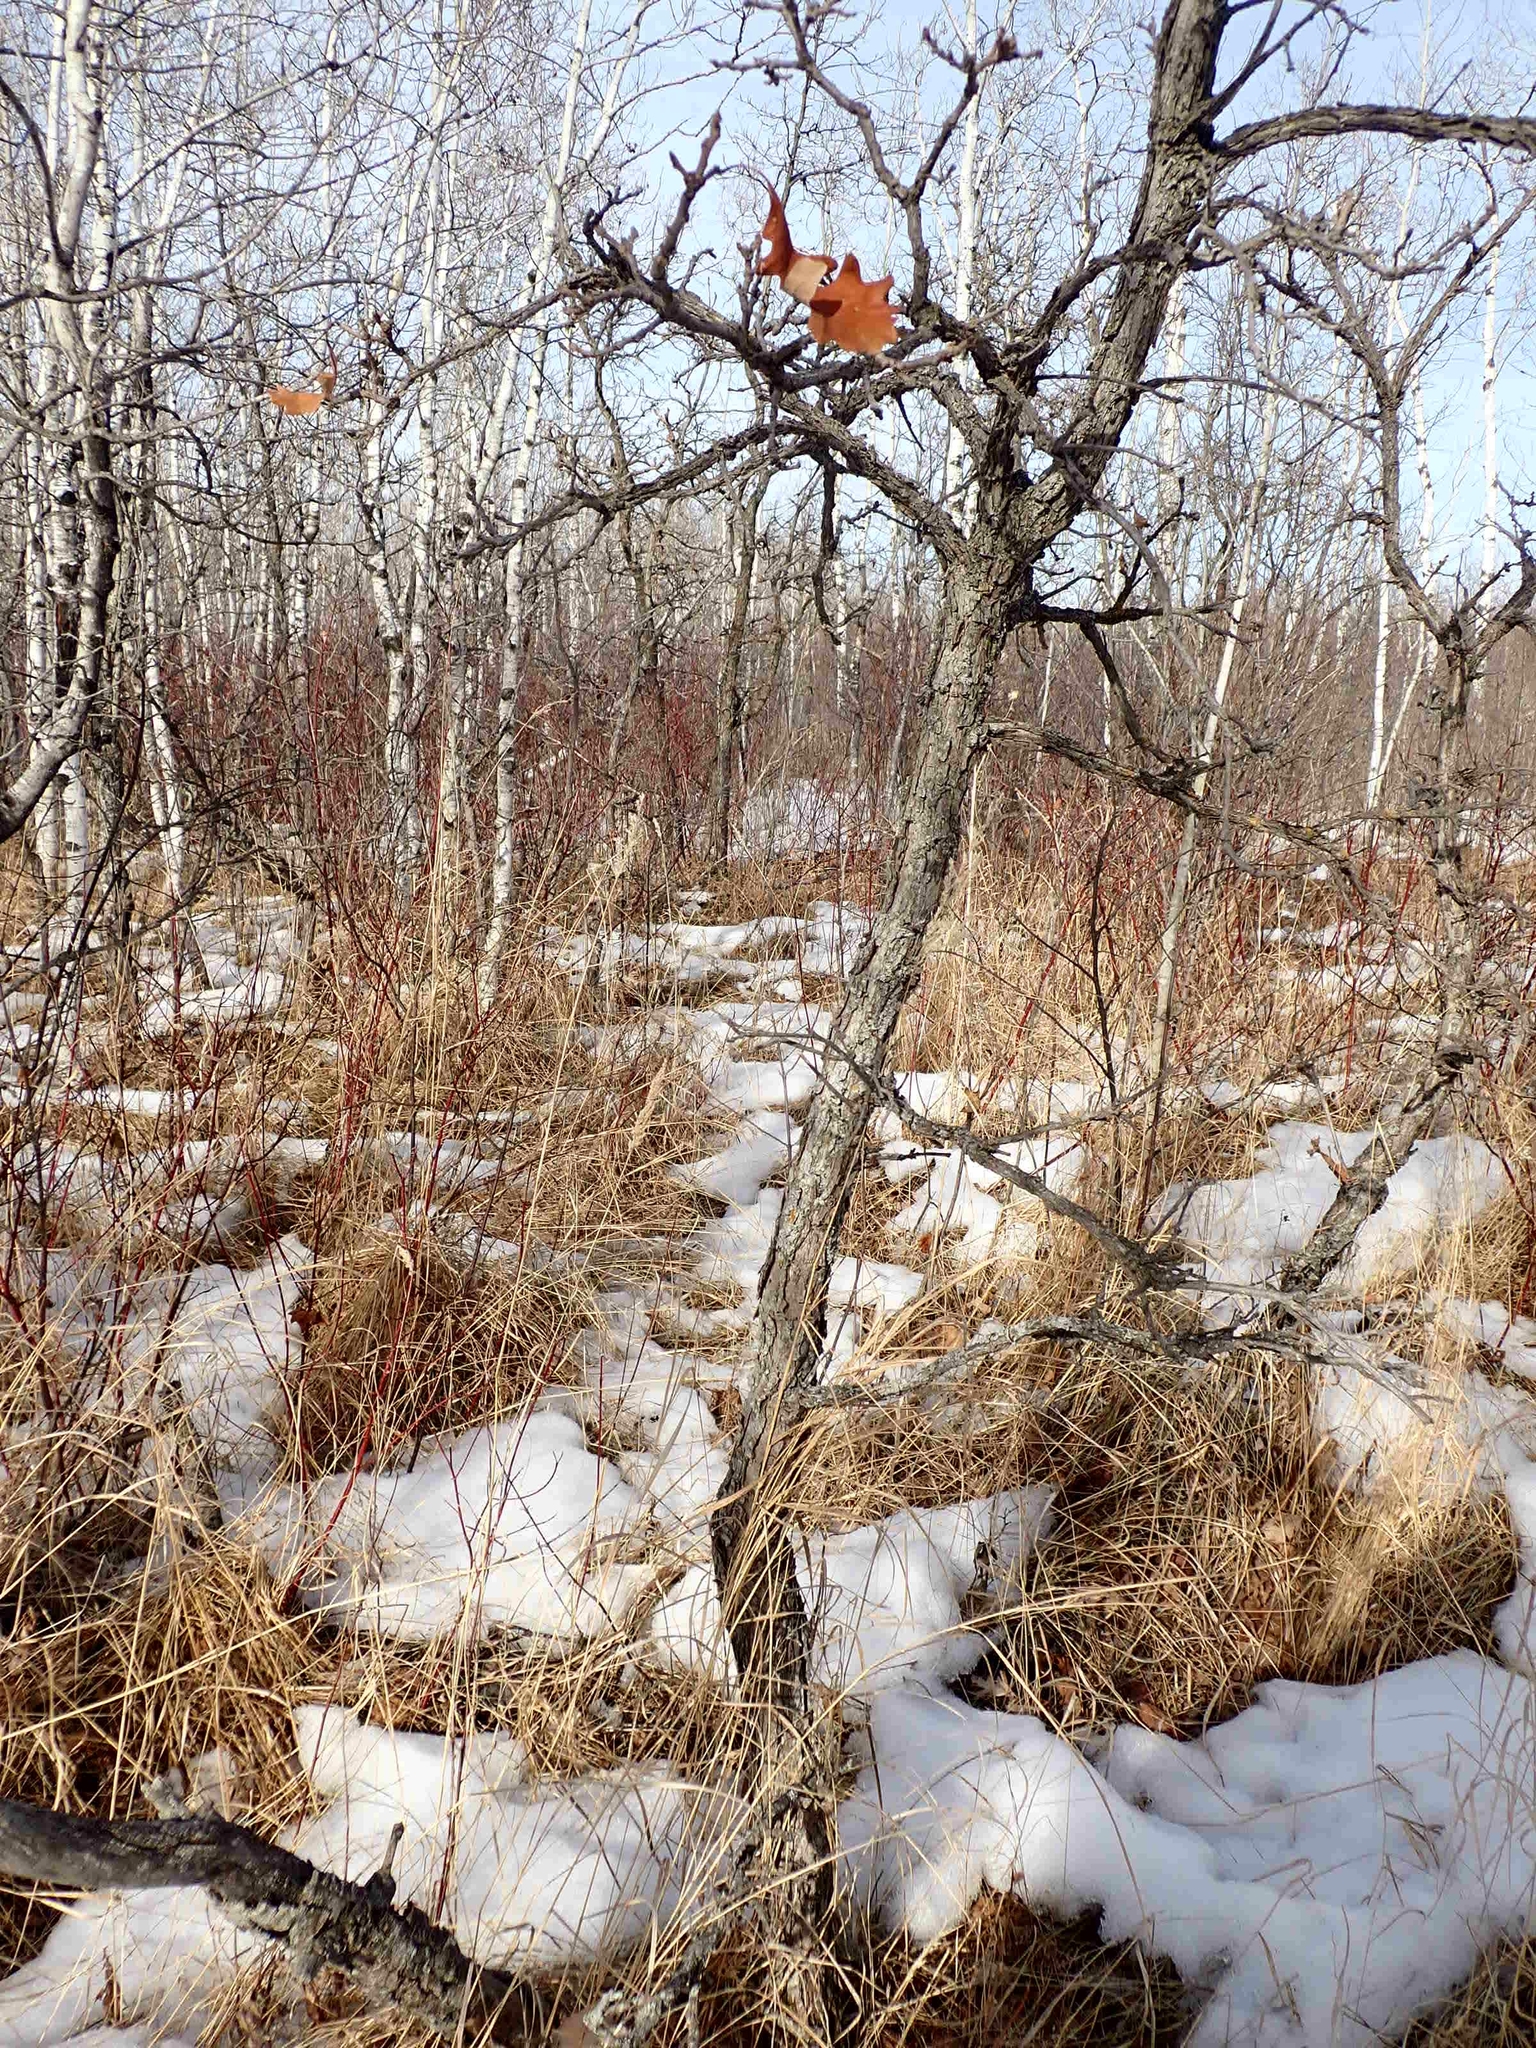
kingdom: Plantae
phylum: Tracheophyta
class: Magnoliopsida
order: Fagales
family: Fagaceae
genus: Quercus
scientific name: Quercus macrocarpa
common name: Bur oak
